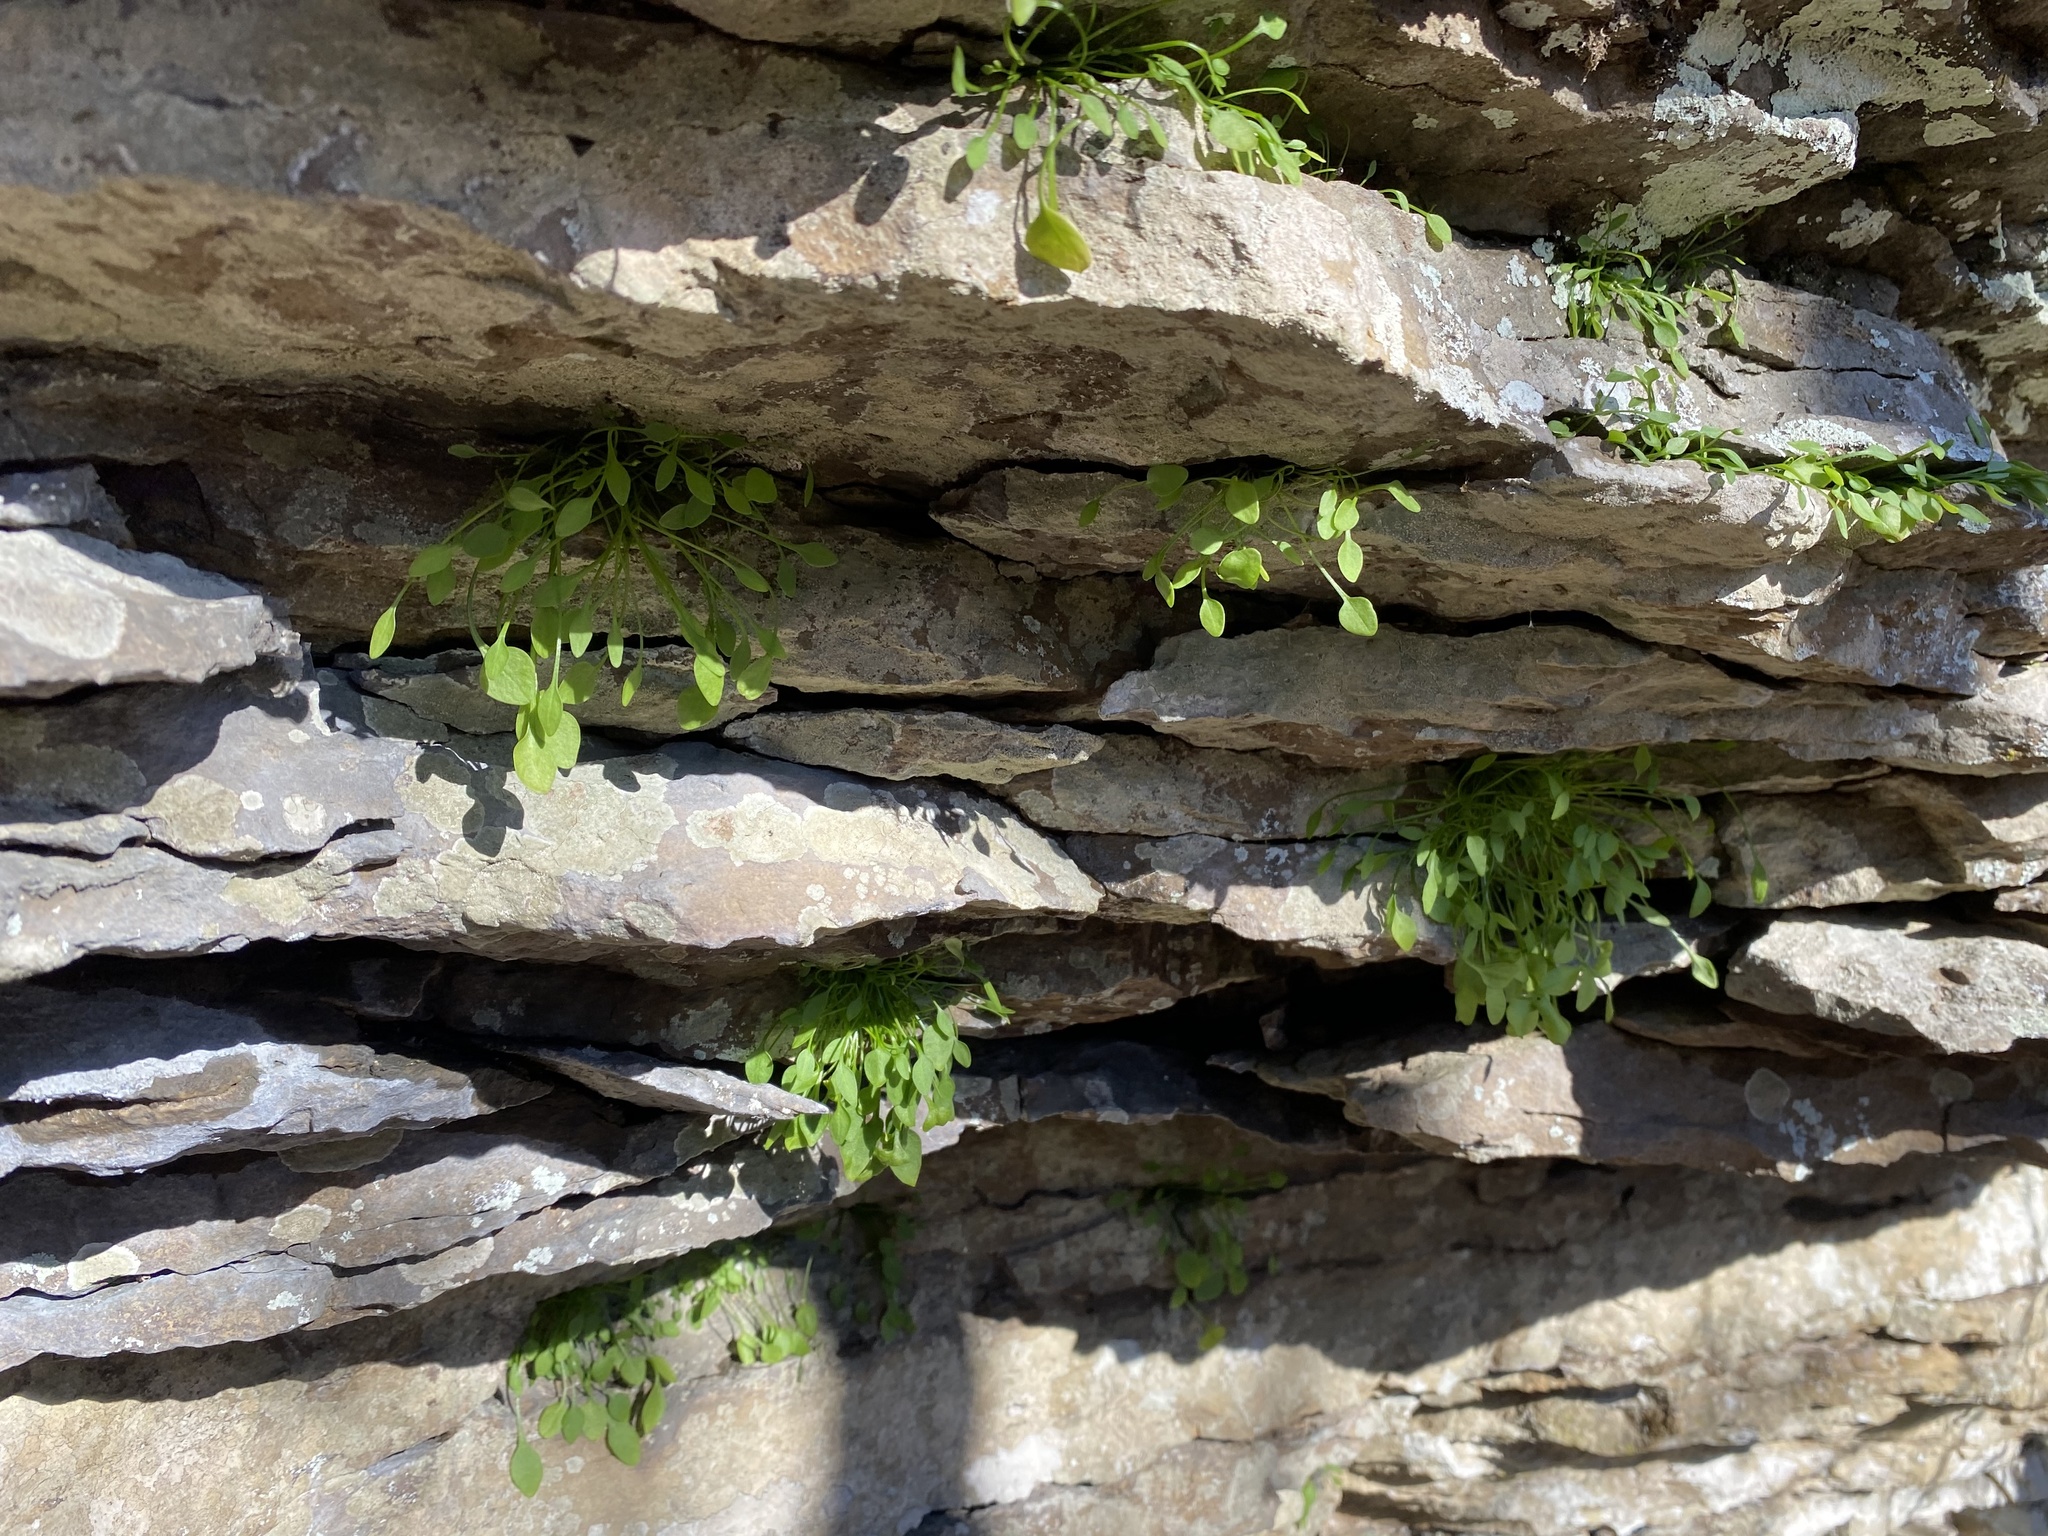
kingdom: Plantae
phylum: Tracheophyta
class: Magnoliopsida
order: Caryophyllales
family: Montiaceae
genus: Claytonia
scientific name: Claytonia arkansana
